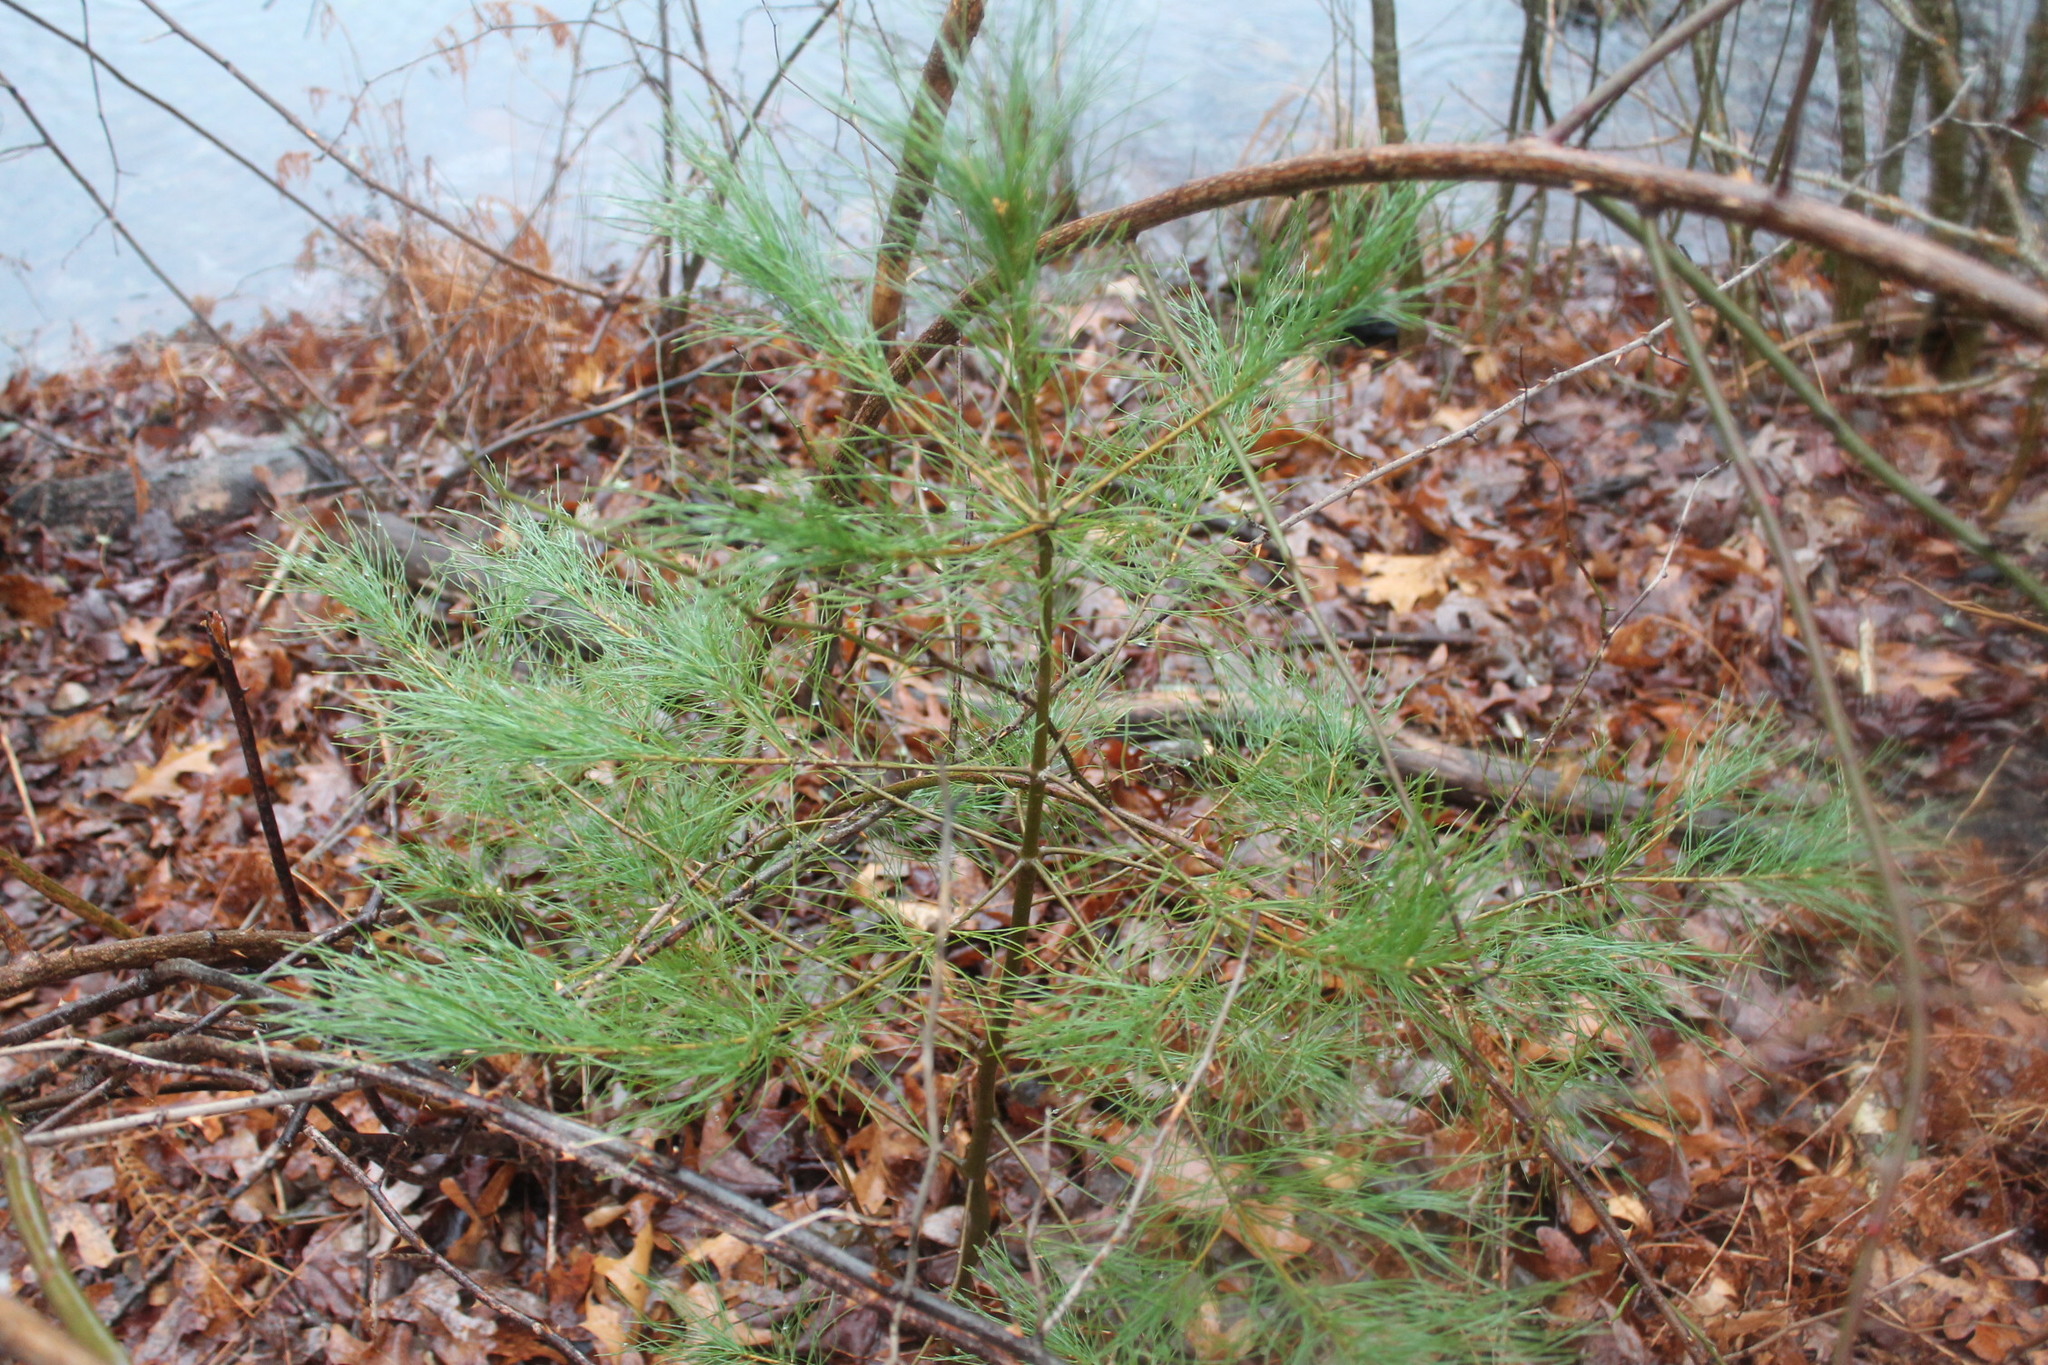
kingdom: Plantae
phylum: Tracheophyta
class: Pinopsida
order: Pinales
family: Pinaceae
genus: Pinus
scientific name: Pinus strobus
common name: Weymouth pine
